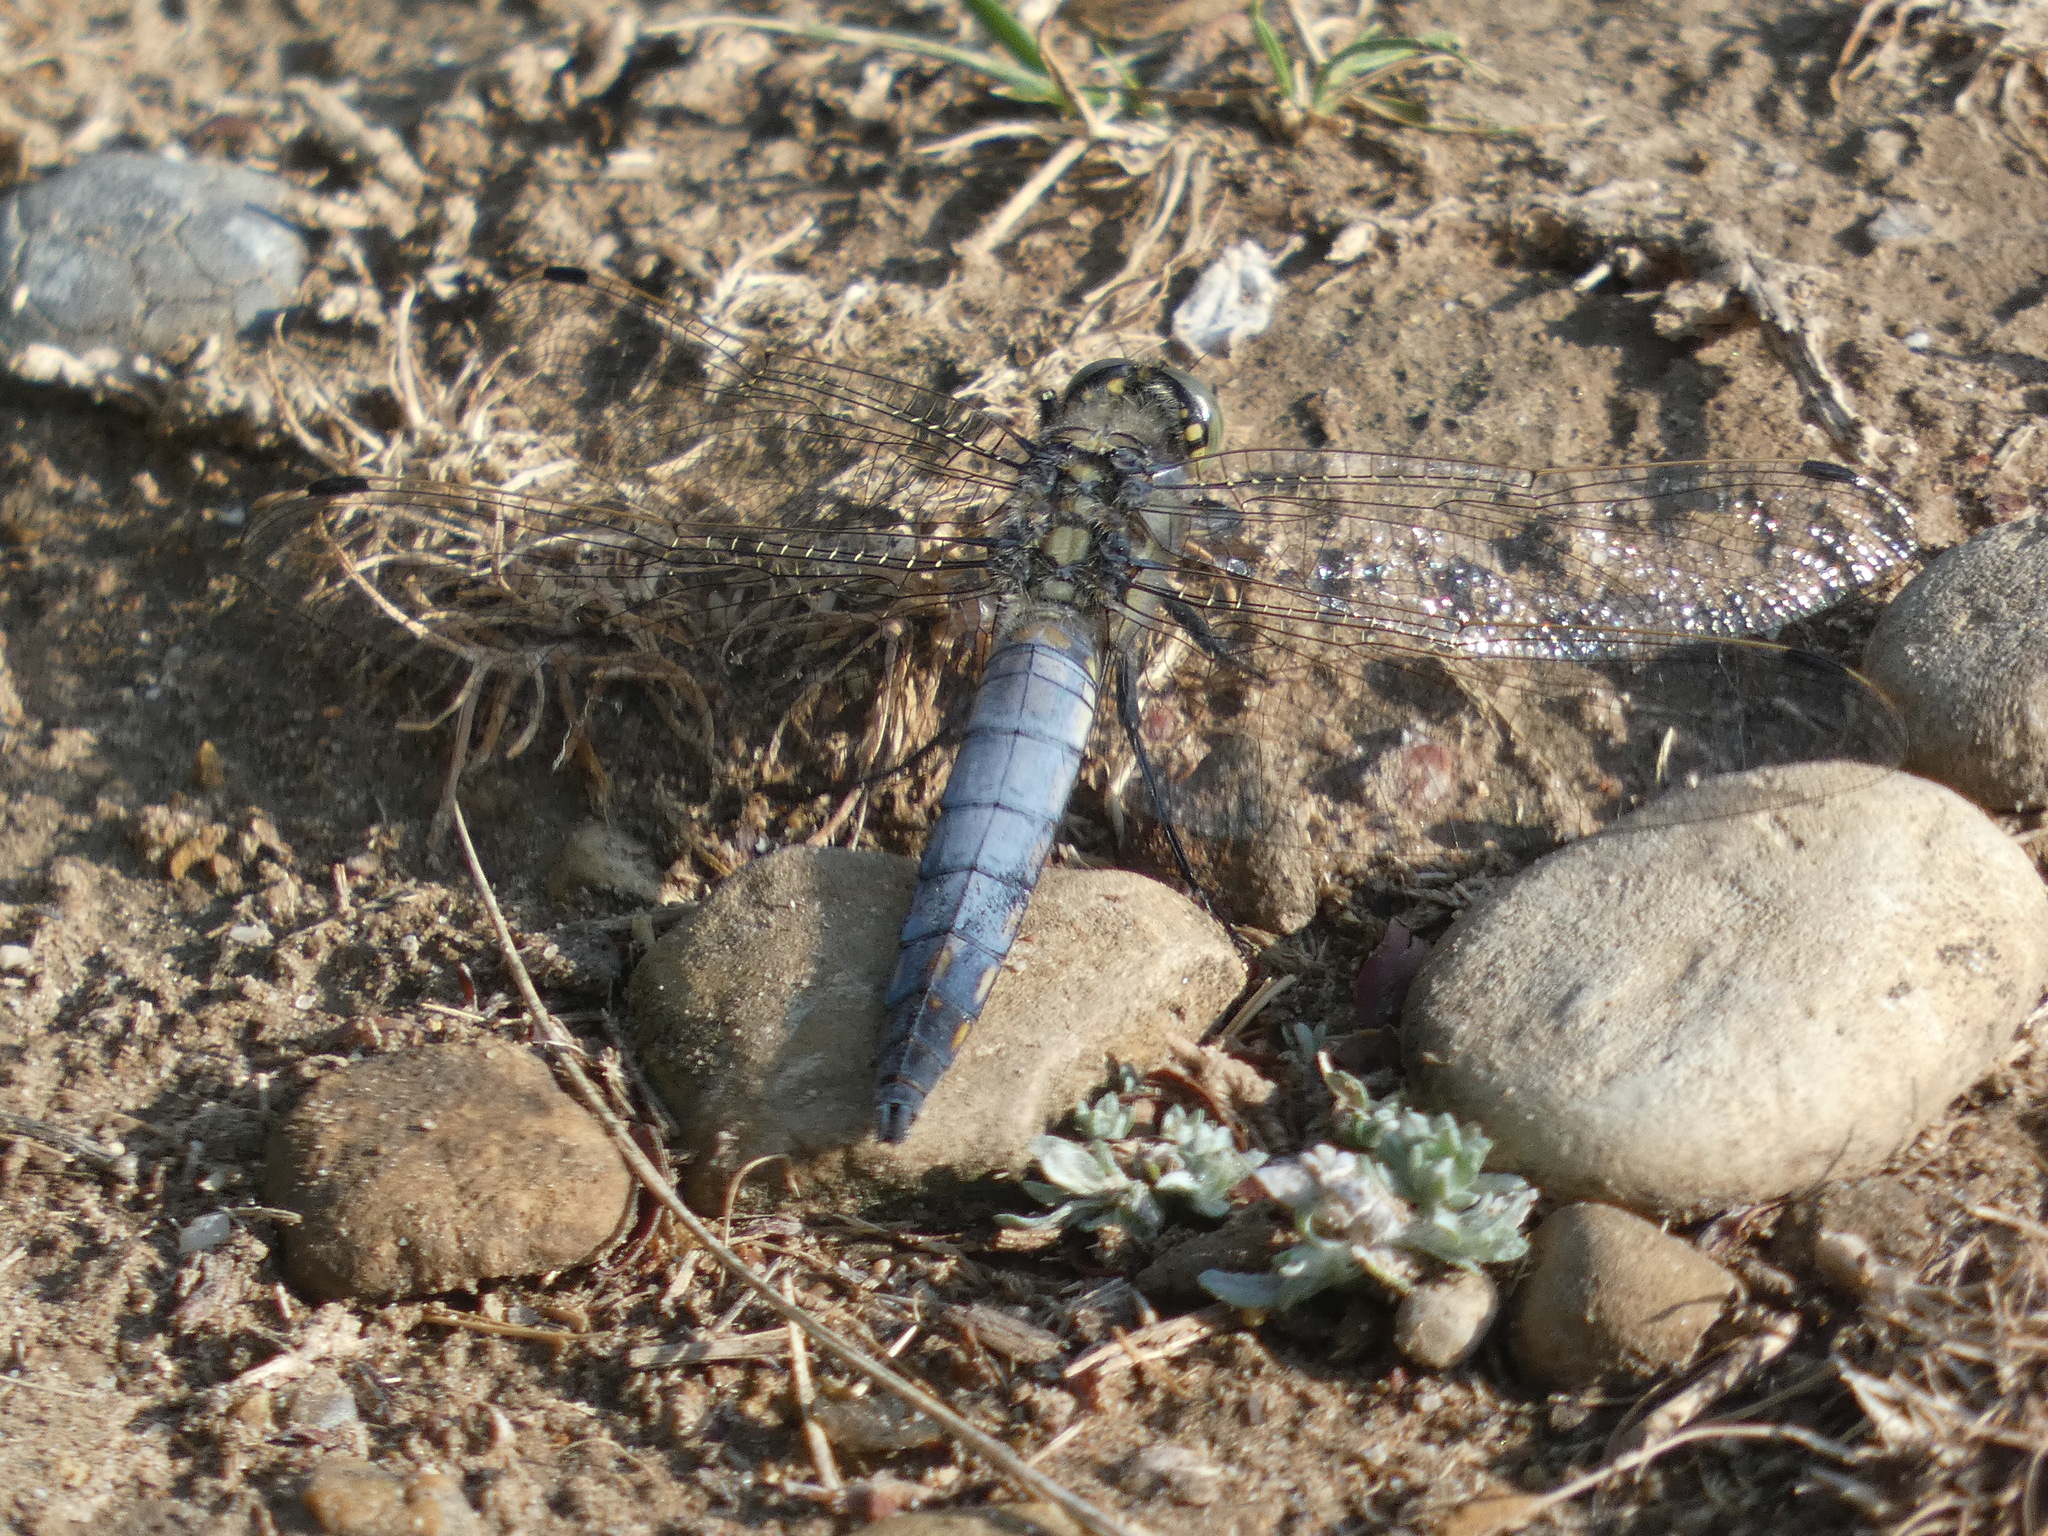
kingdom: Animalia
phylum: Arthropoda
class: Insecta
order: Odonata
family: Libellulidae
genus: Orthetrum
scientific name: Orthetrum cancellatum
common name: Black-tailed skimmer
